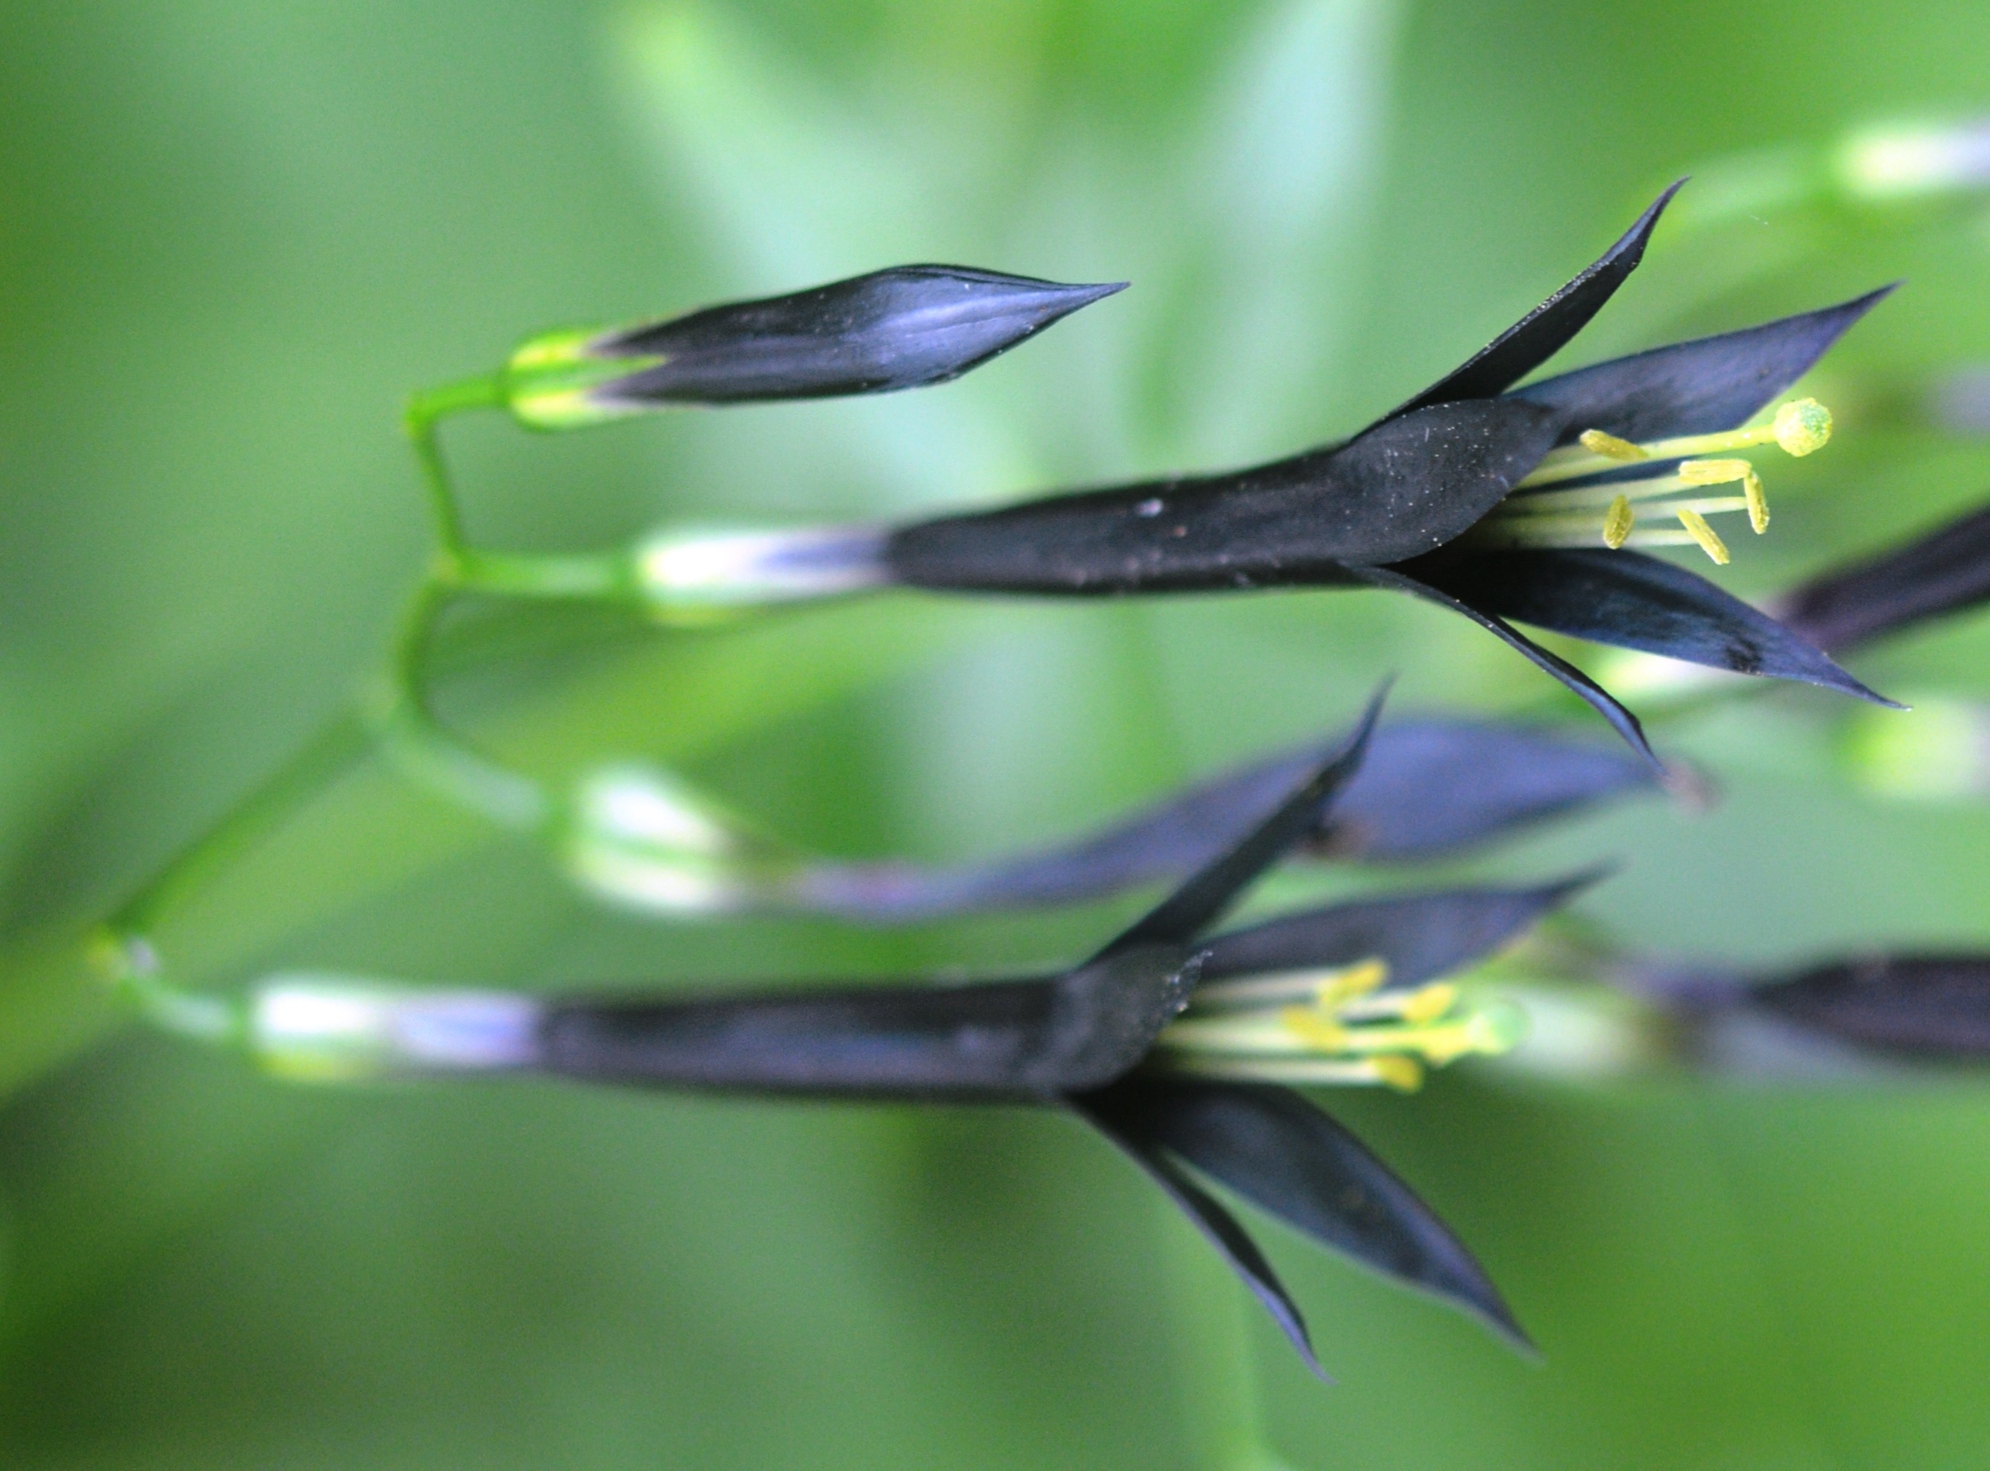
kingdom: Plantae
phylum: Tracheophyta
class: Magnoliopsida
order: Gentianales
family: Gentianaceae
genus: Lisianthus
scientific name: Lisianthus nigrescens
